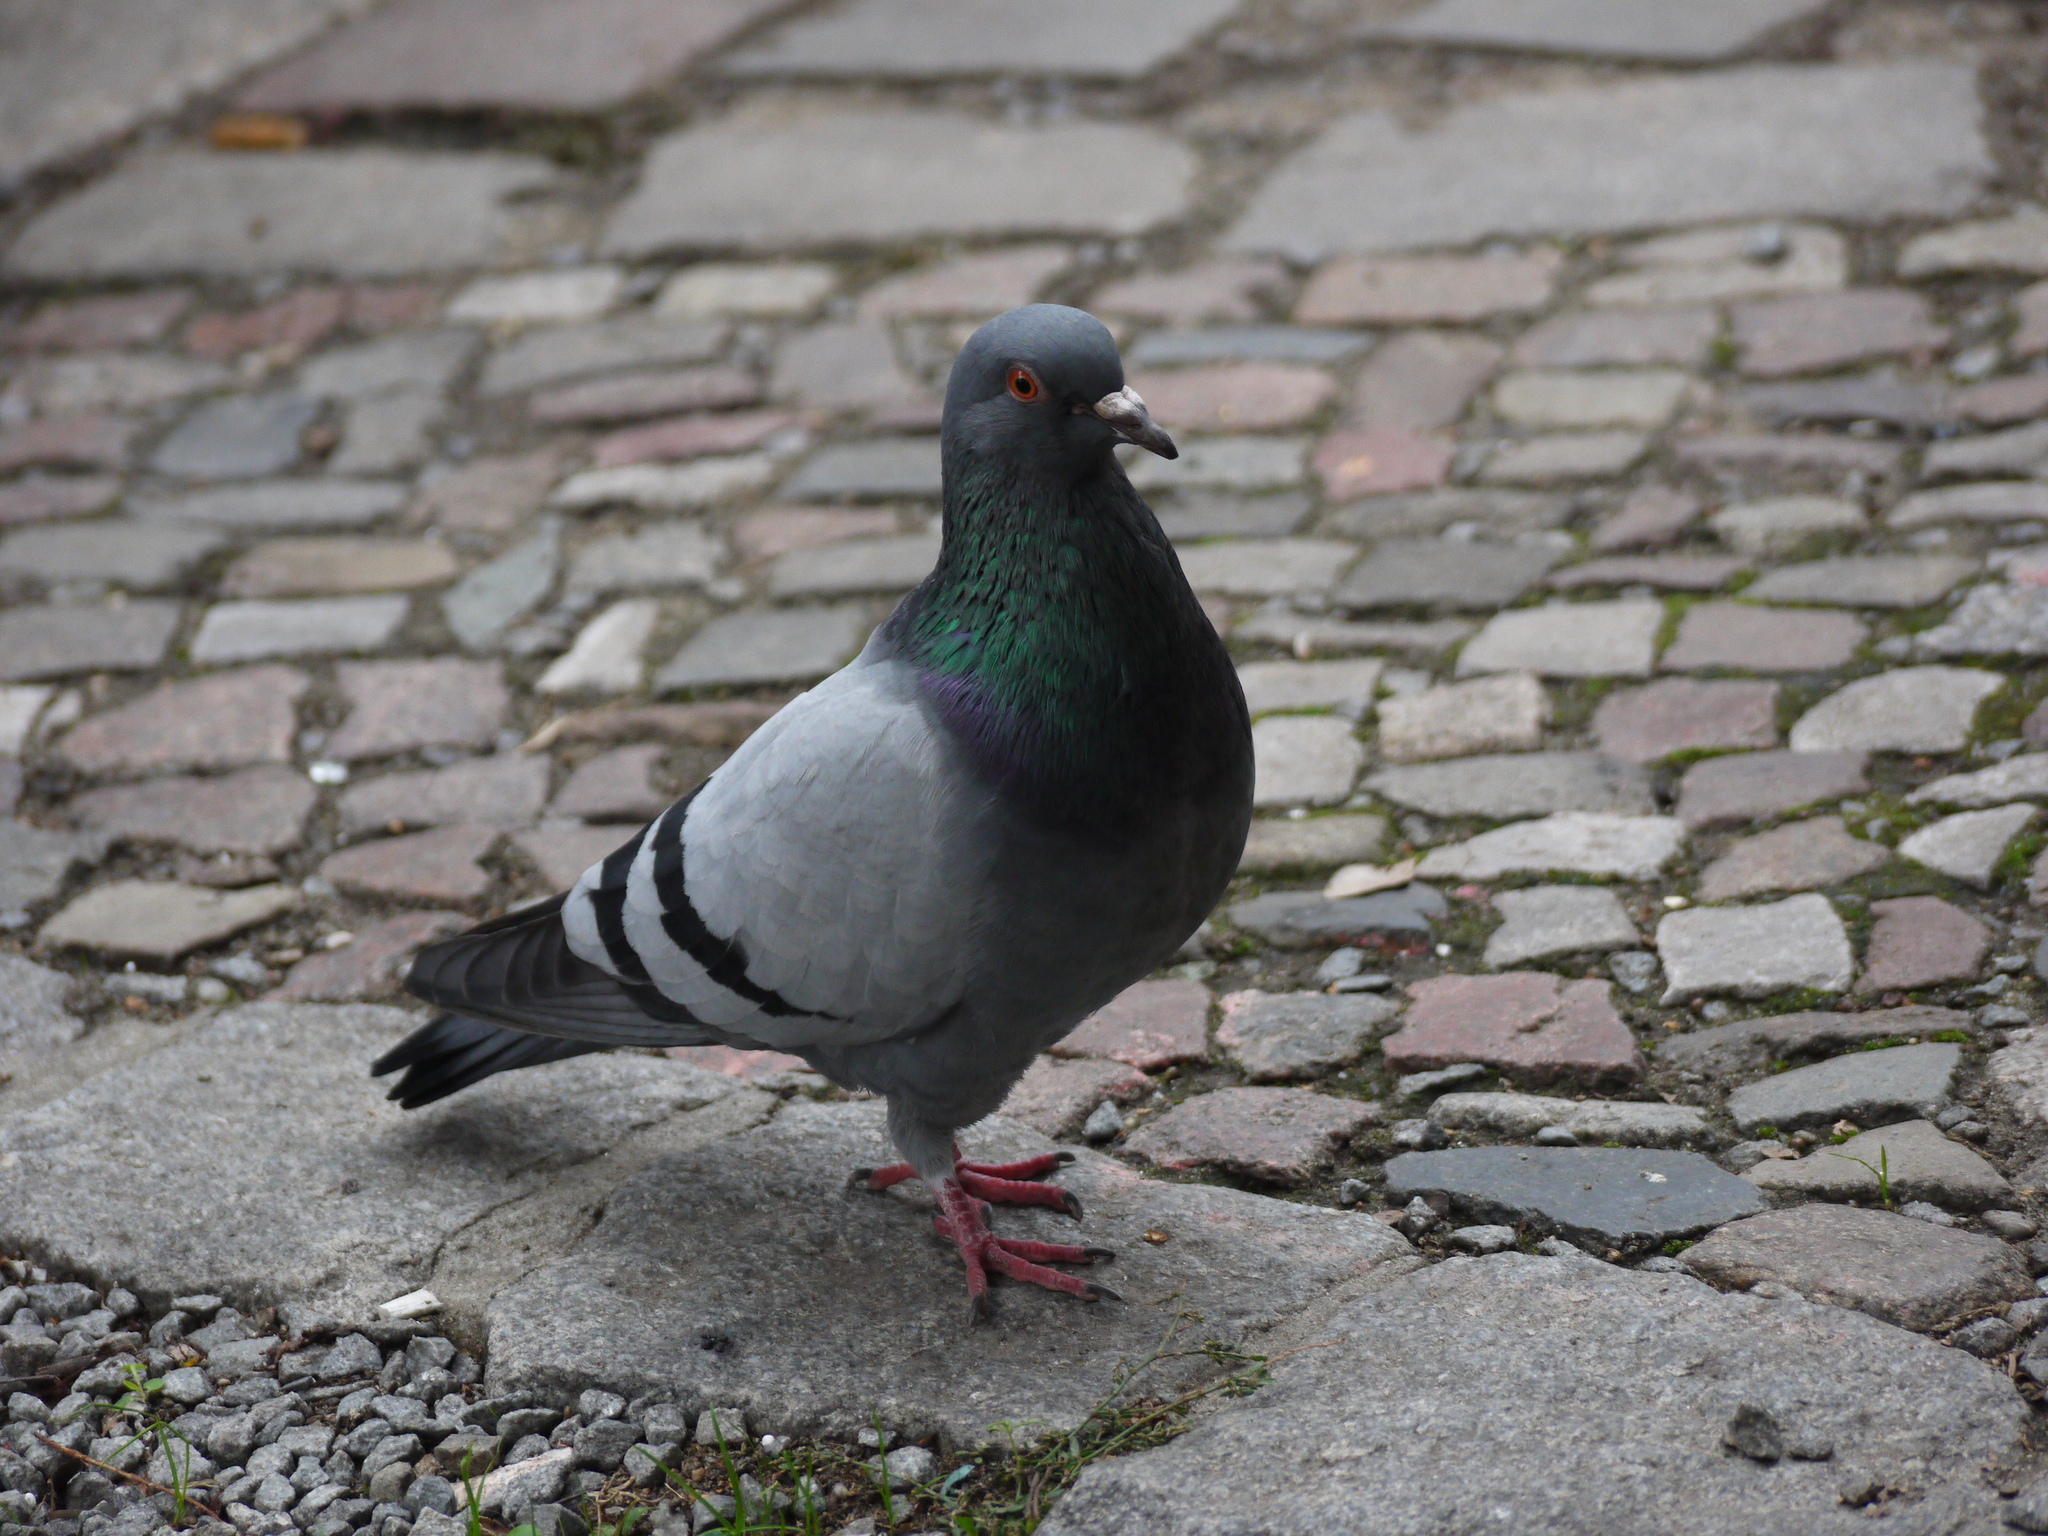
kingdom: Animalia
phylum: Chordata
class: Aves
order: Columbiformes
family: Columbidae
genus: Columba
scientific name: Columba livia
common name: Rock pigeon
